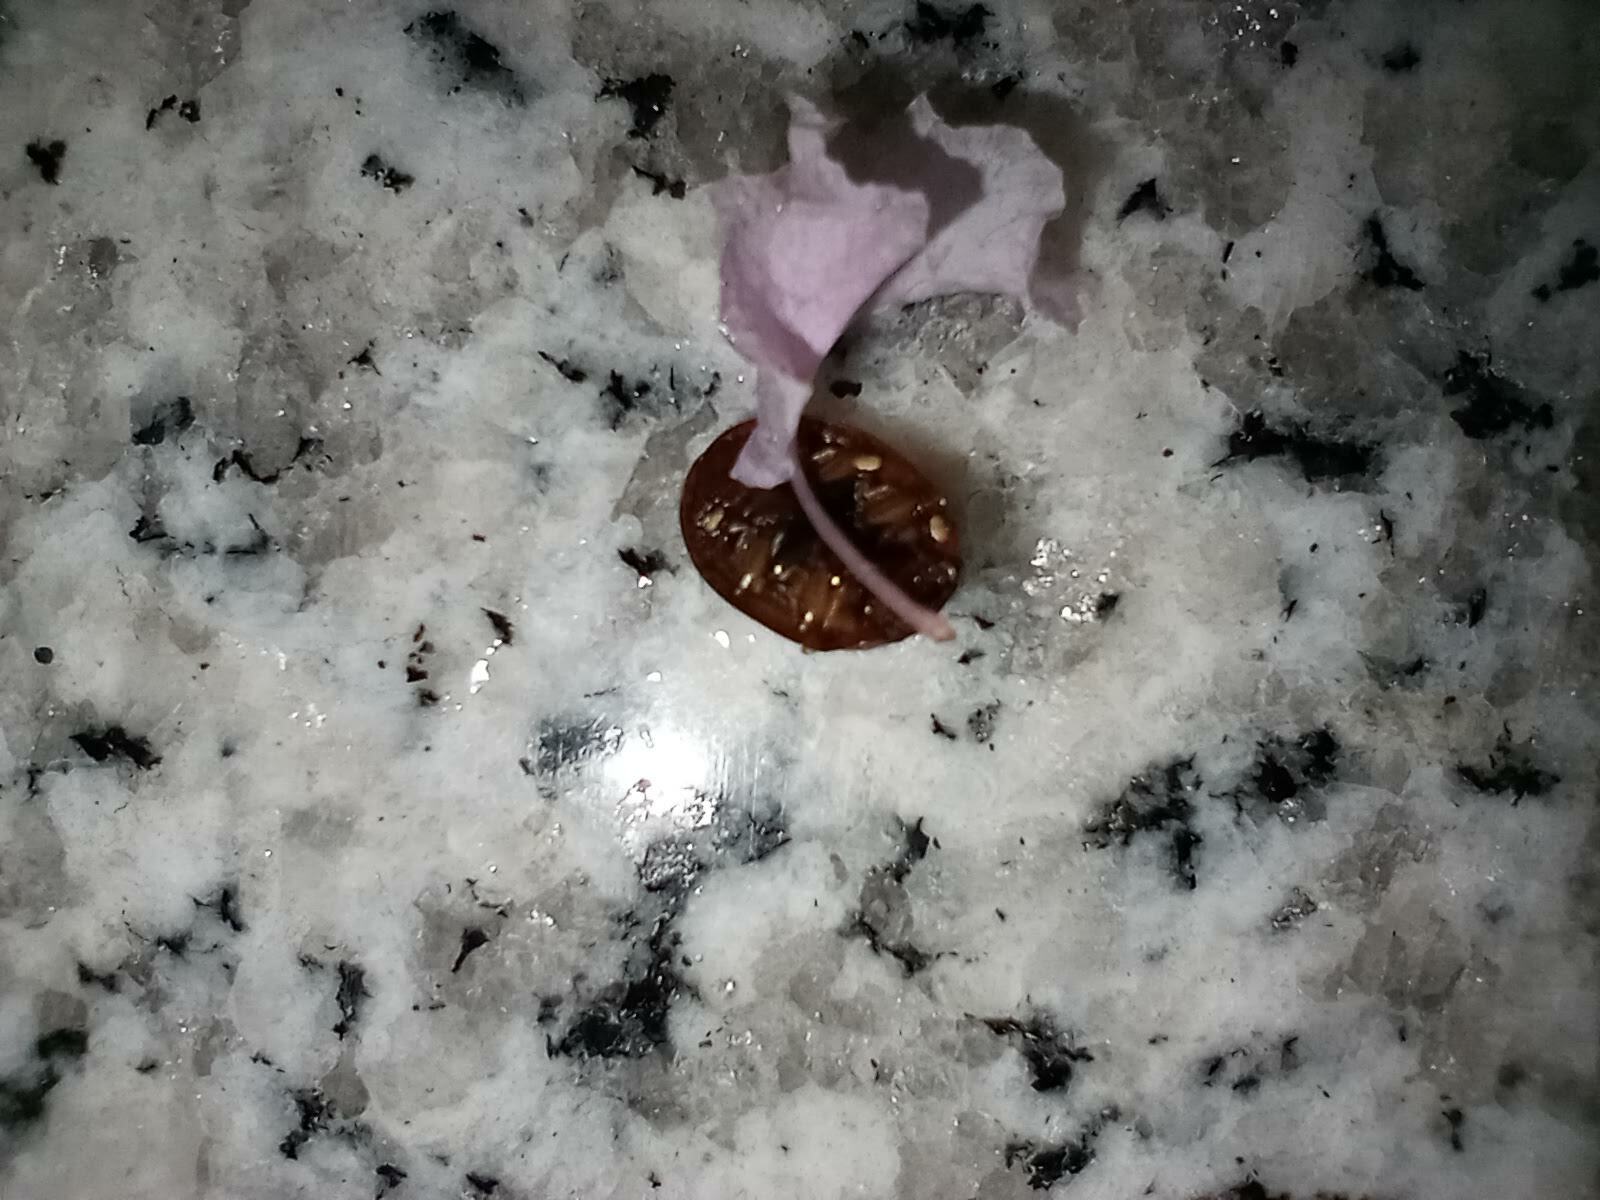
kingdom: Animalia
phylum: Arthropoda
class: Insecta
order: Coleoptera
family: Chrysomelidae
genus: Trachymela
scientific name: Trachymela sloanei
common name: Australian tortoise beetle
